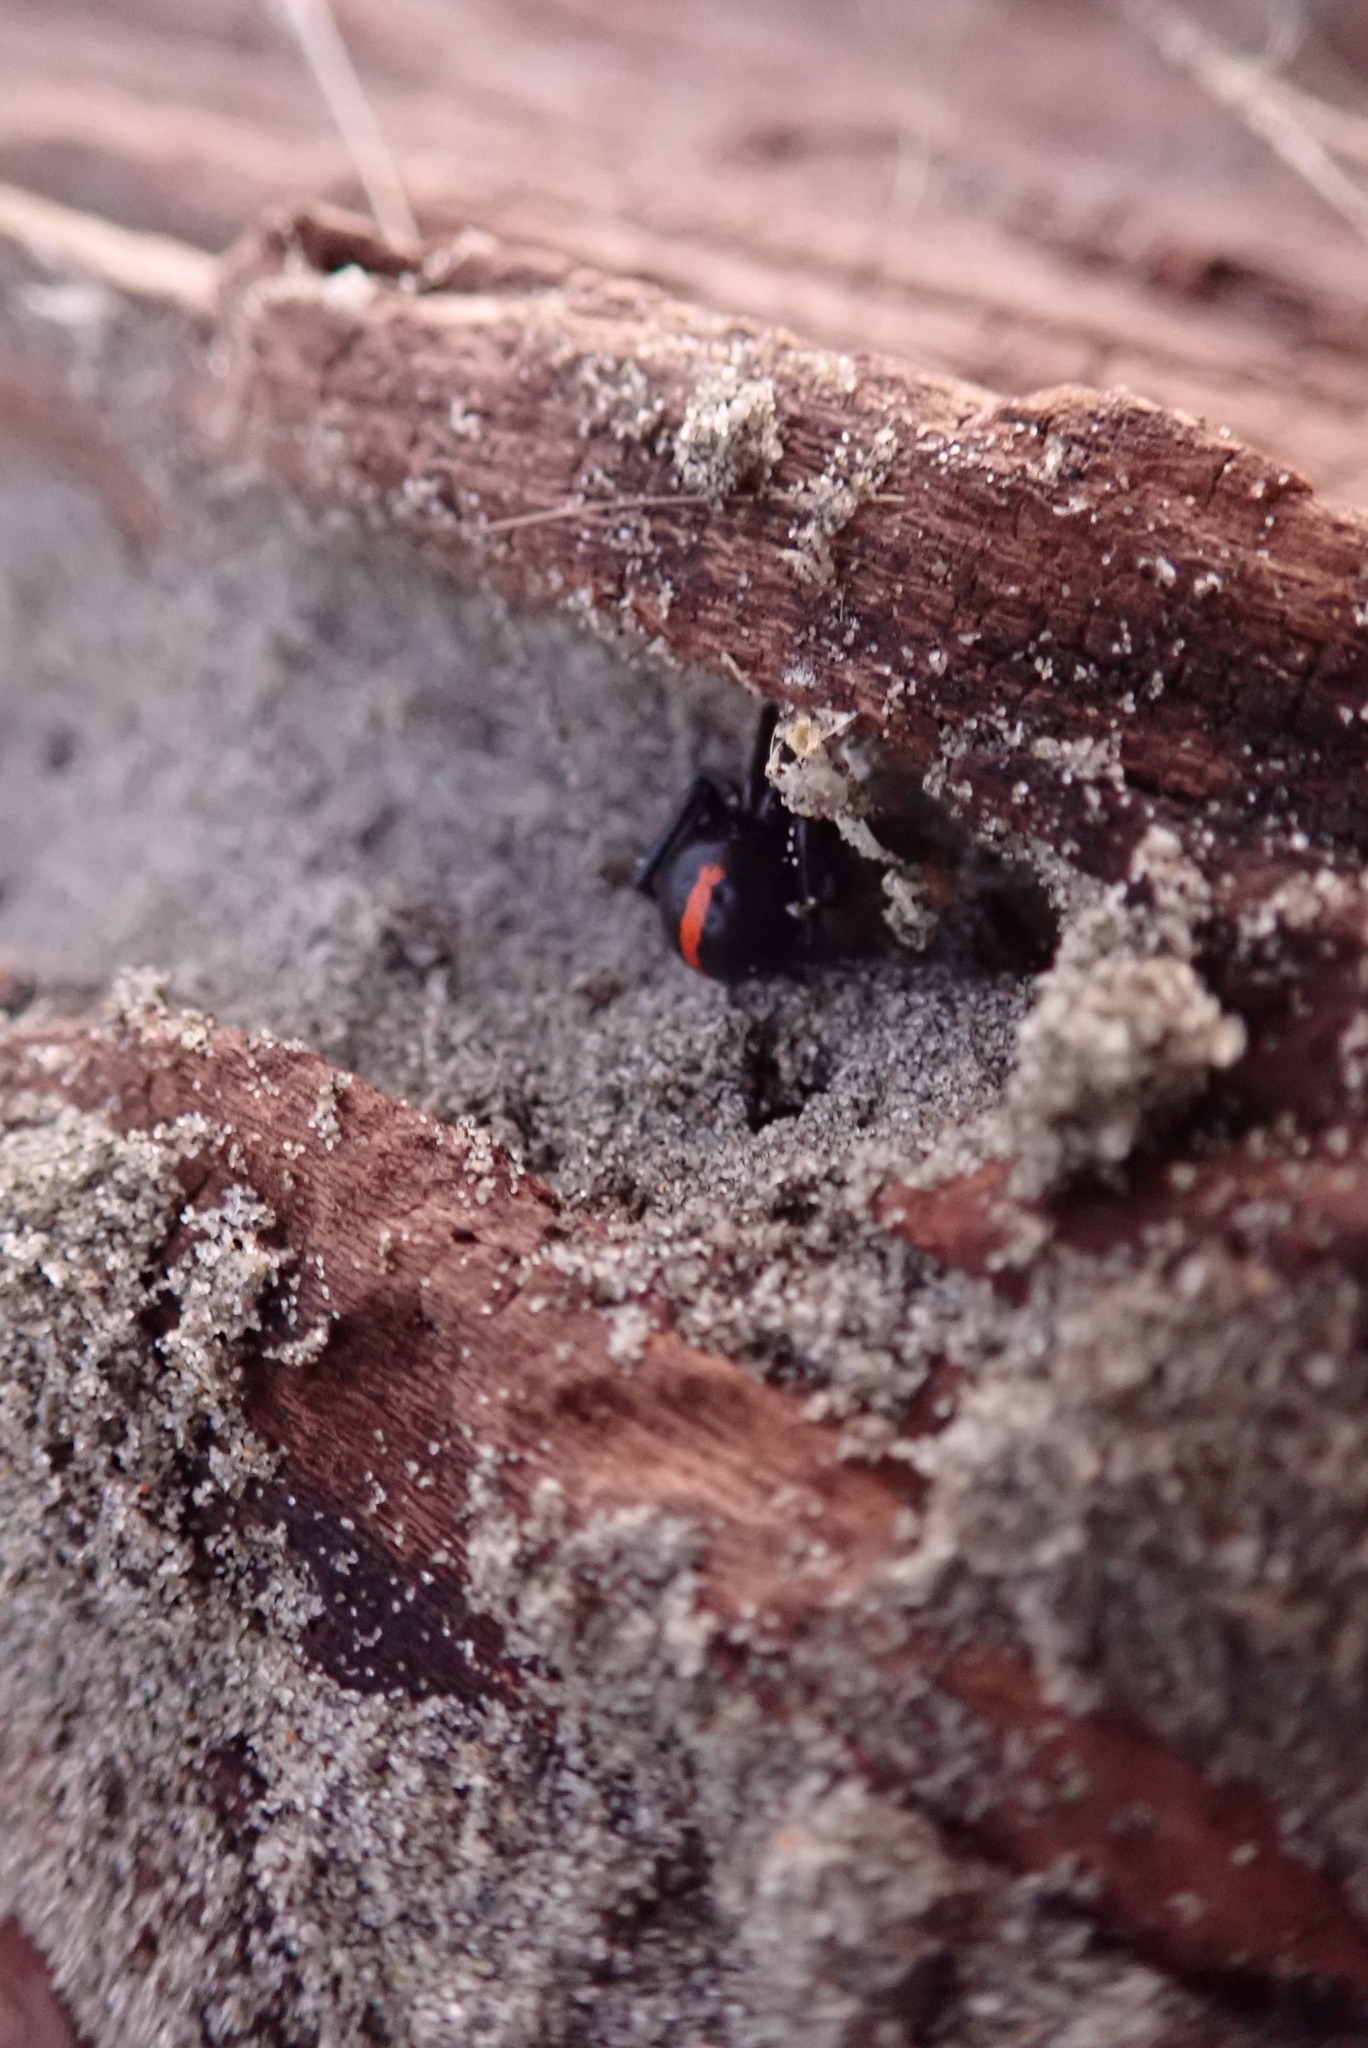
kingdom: Animalia
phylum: Arthropoda
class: Arachnida
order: Araneae
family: Theridiidae
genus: Steatoda
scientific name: Steatoda capensis
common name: Cobweb weaver
